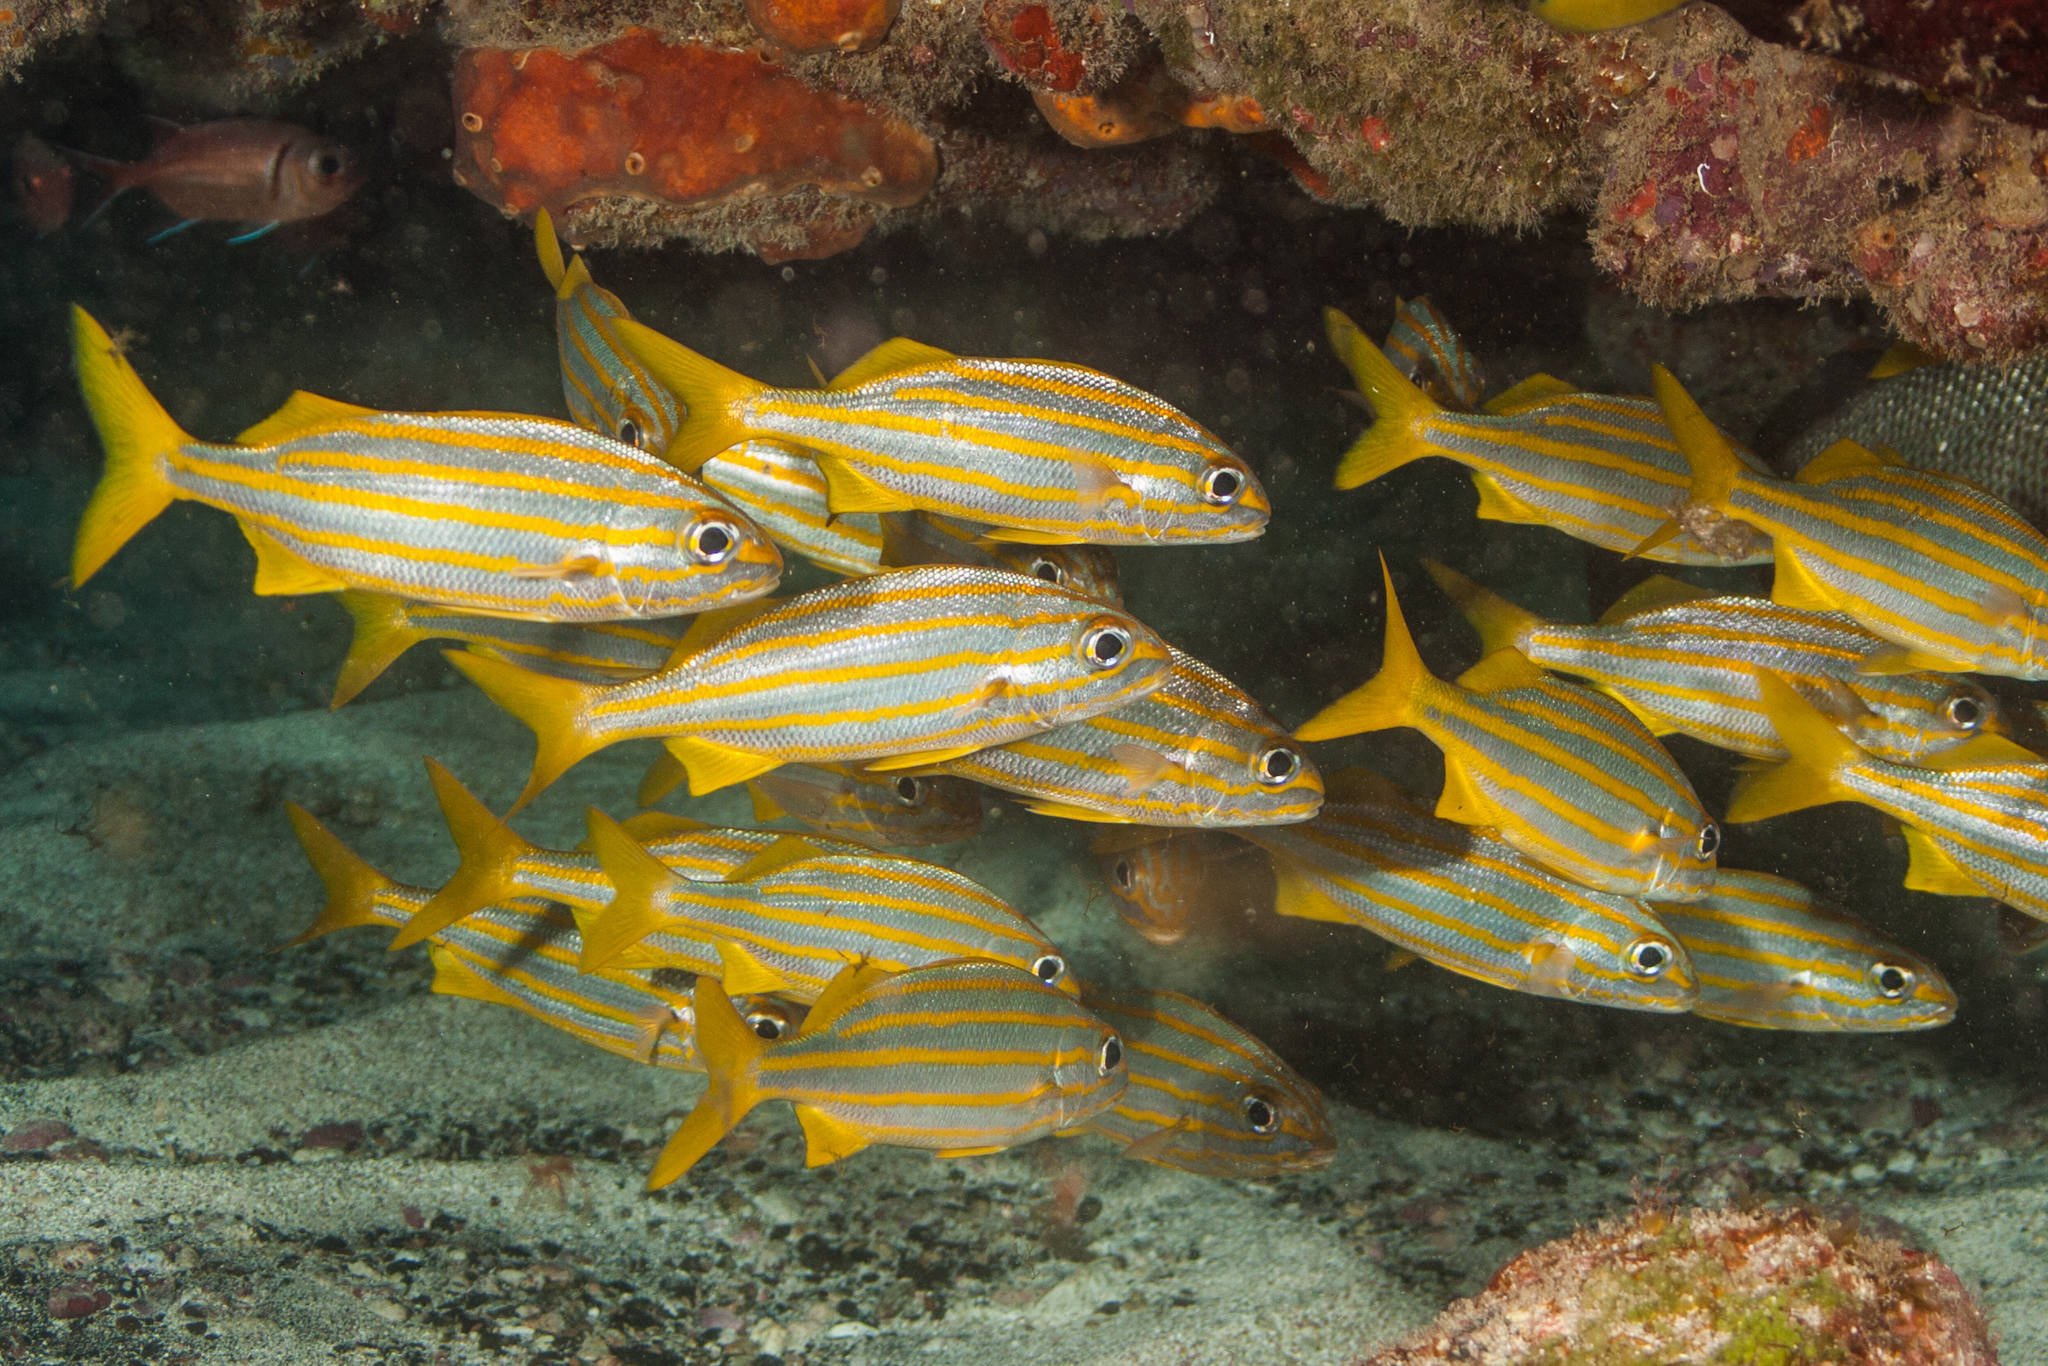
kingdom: Animalia
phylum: Chordata
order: Perciformes
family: Haemulidae
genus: Haemulon
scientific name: Haemulon chrysargyreum
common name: Smallmouth grunt
